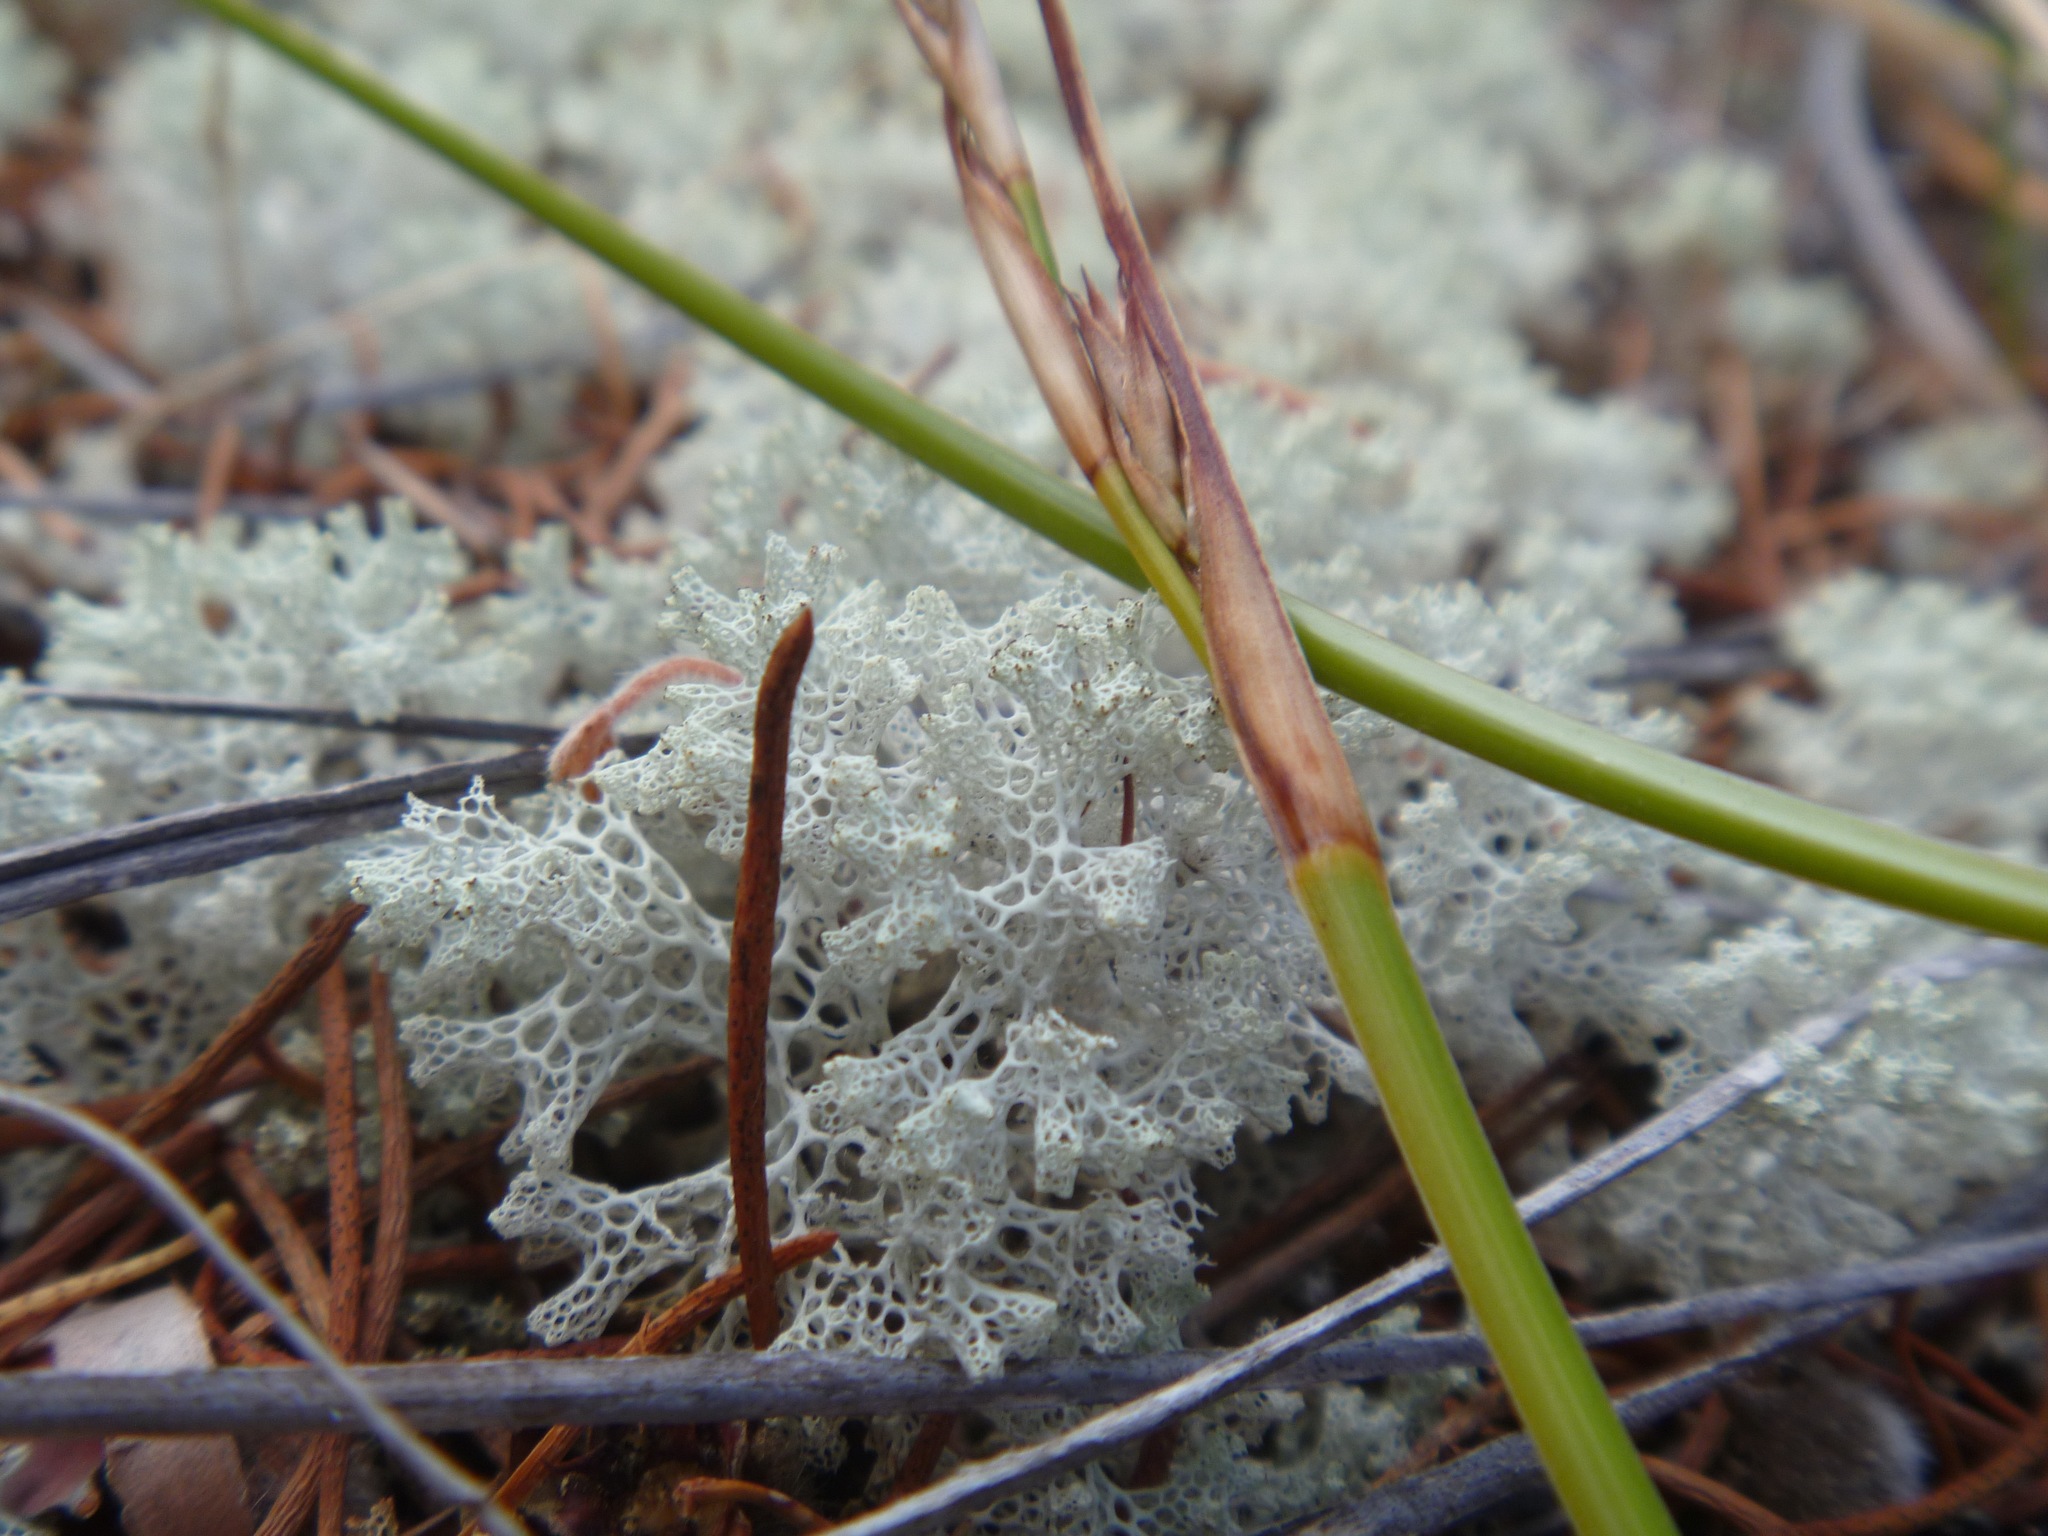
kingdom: Fungi
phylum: Ascomycota
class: Lecanoromycetes
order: Lecanorales
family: Cladoniaceae
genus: Pulchrocladia
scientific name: Pulchrocladia ferdinandii
